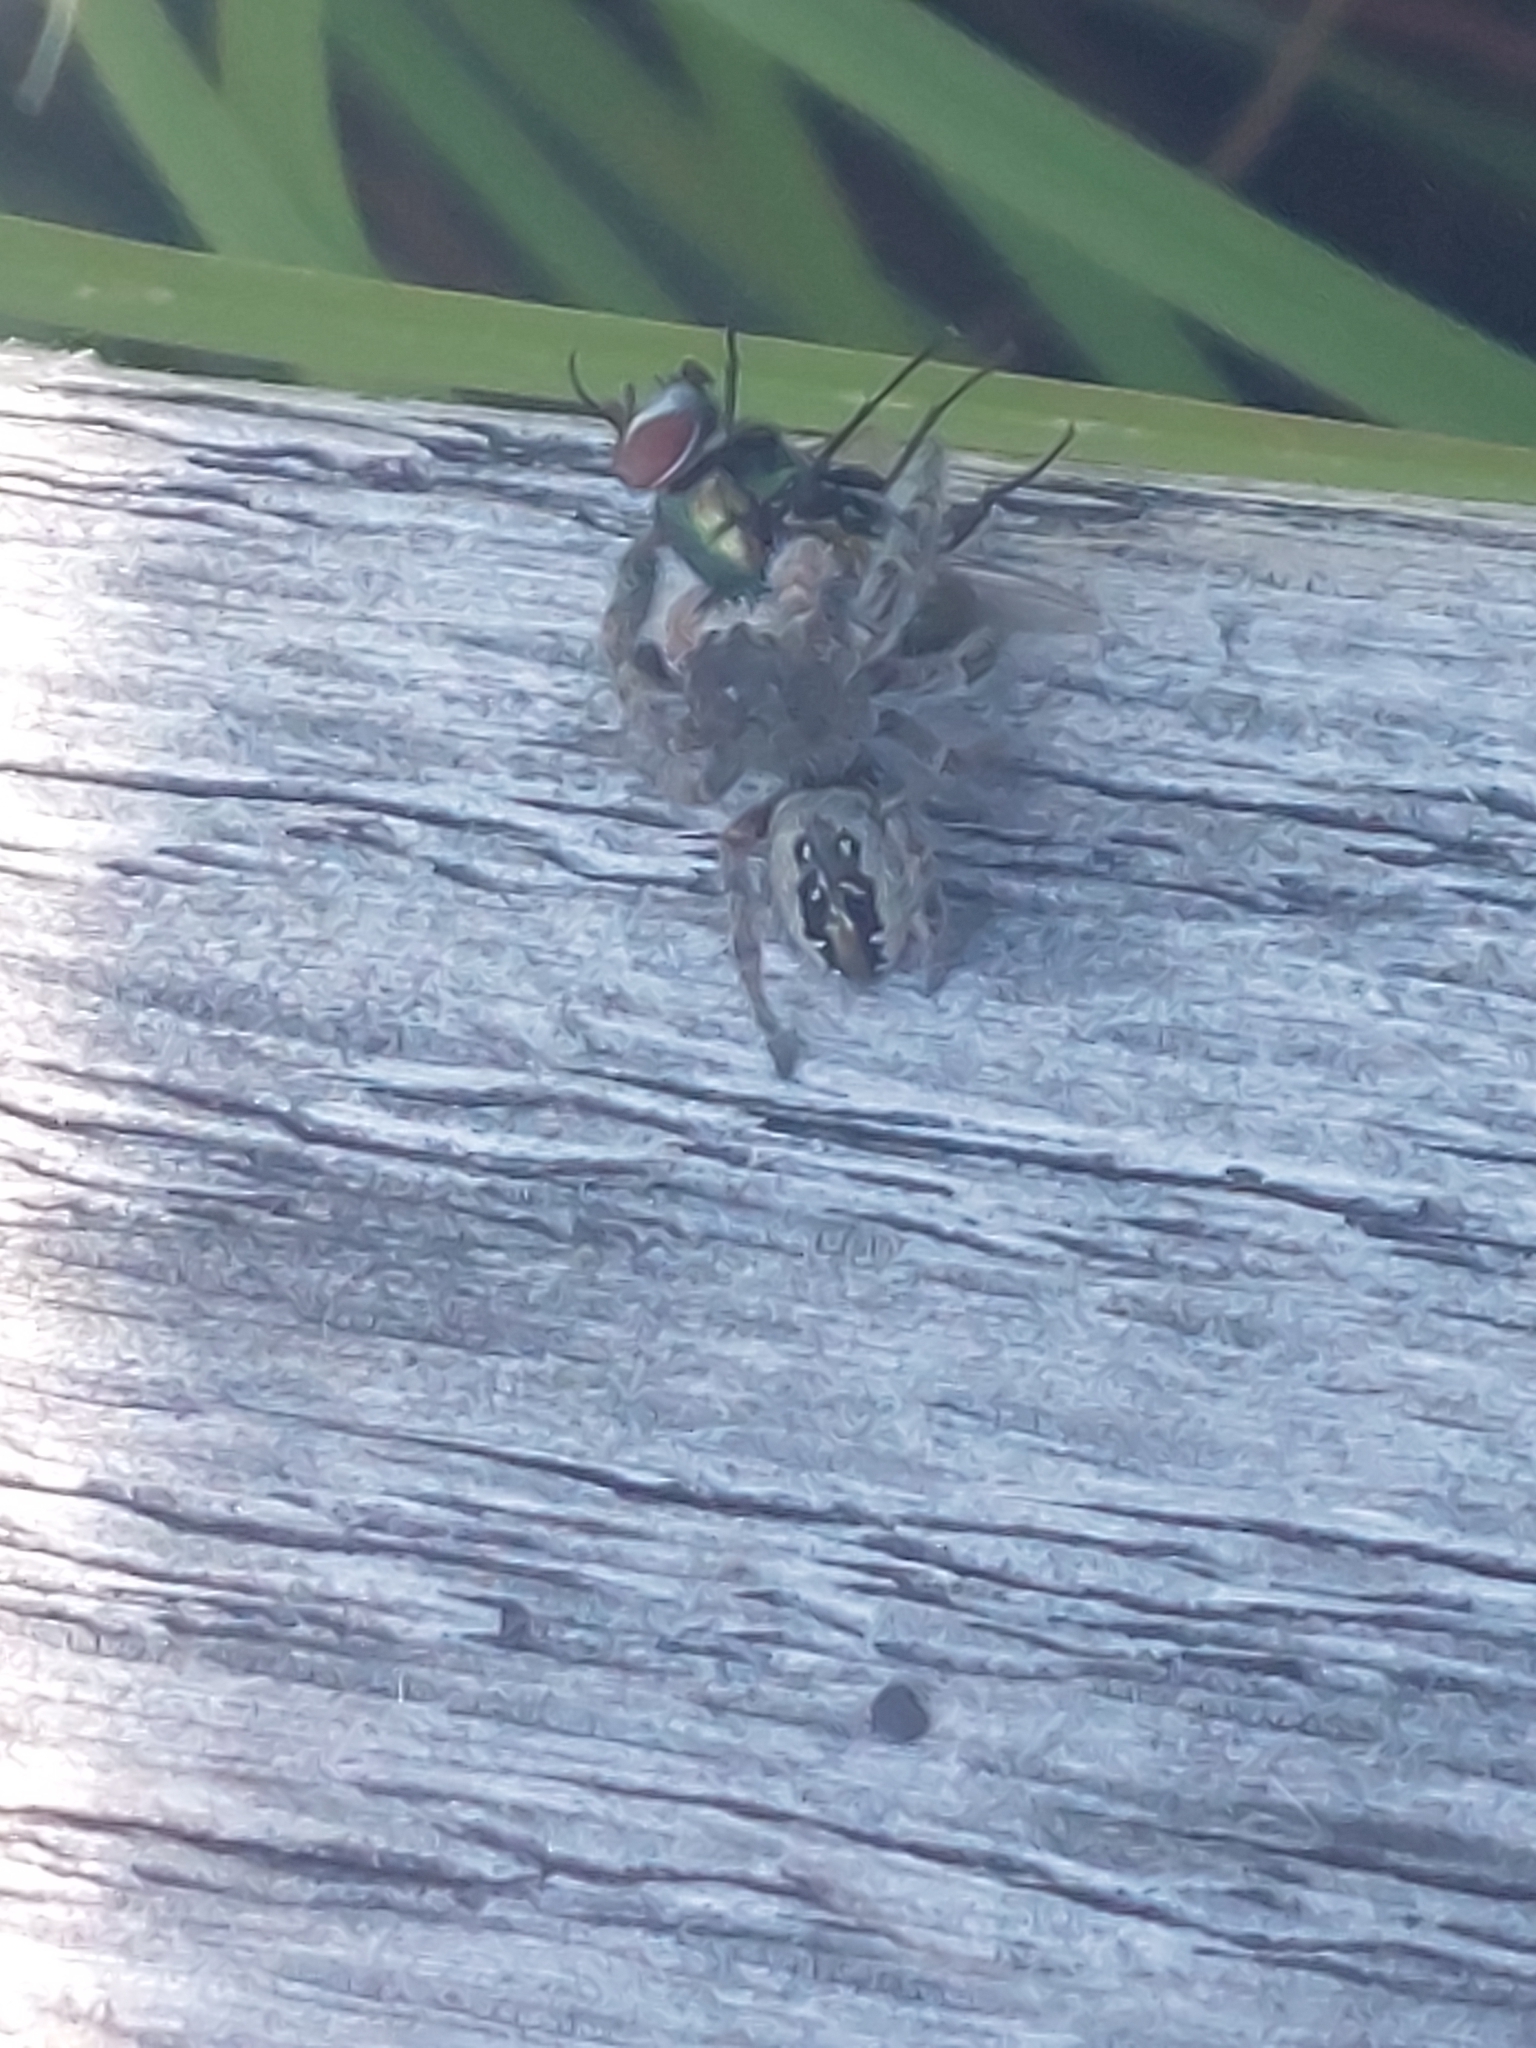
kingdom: Animalia
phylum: Arthropoda
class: Arachnida
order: Araneae
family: Salticidae
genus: Phidippus
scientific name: Phidippus purpuratus
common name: Marbled purple jumping spider
